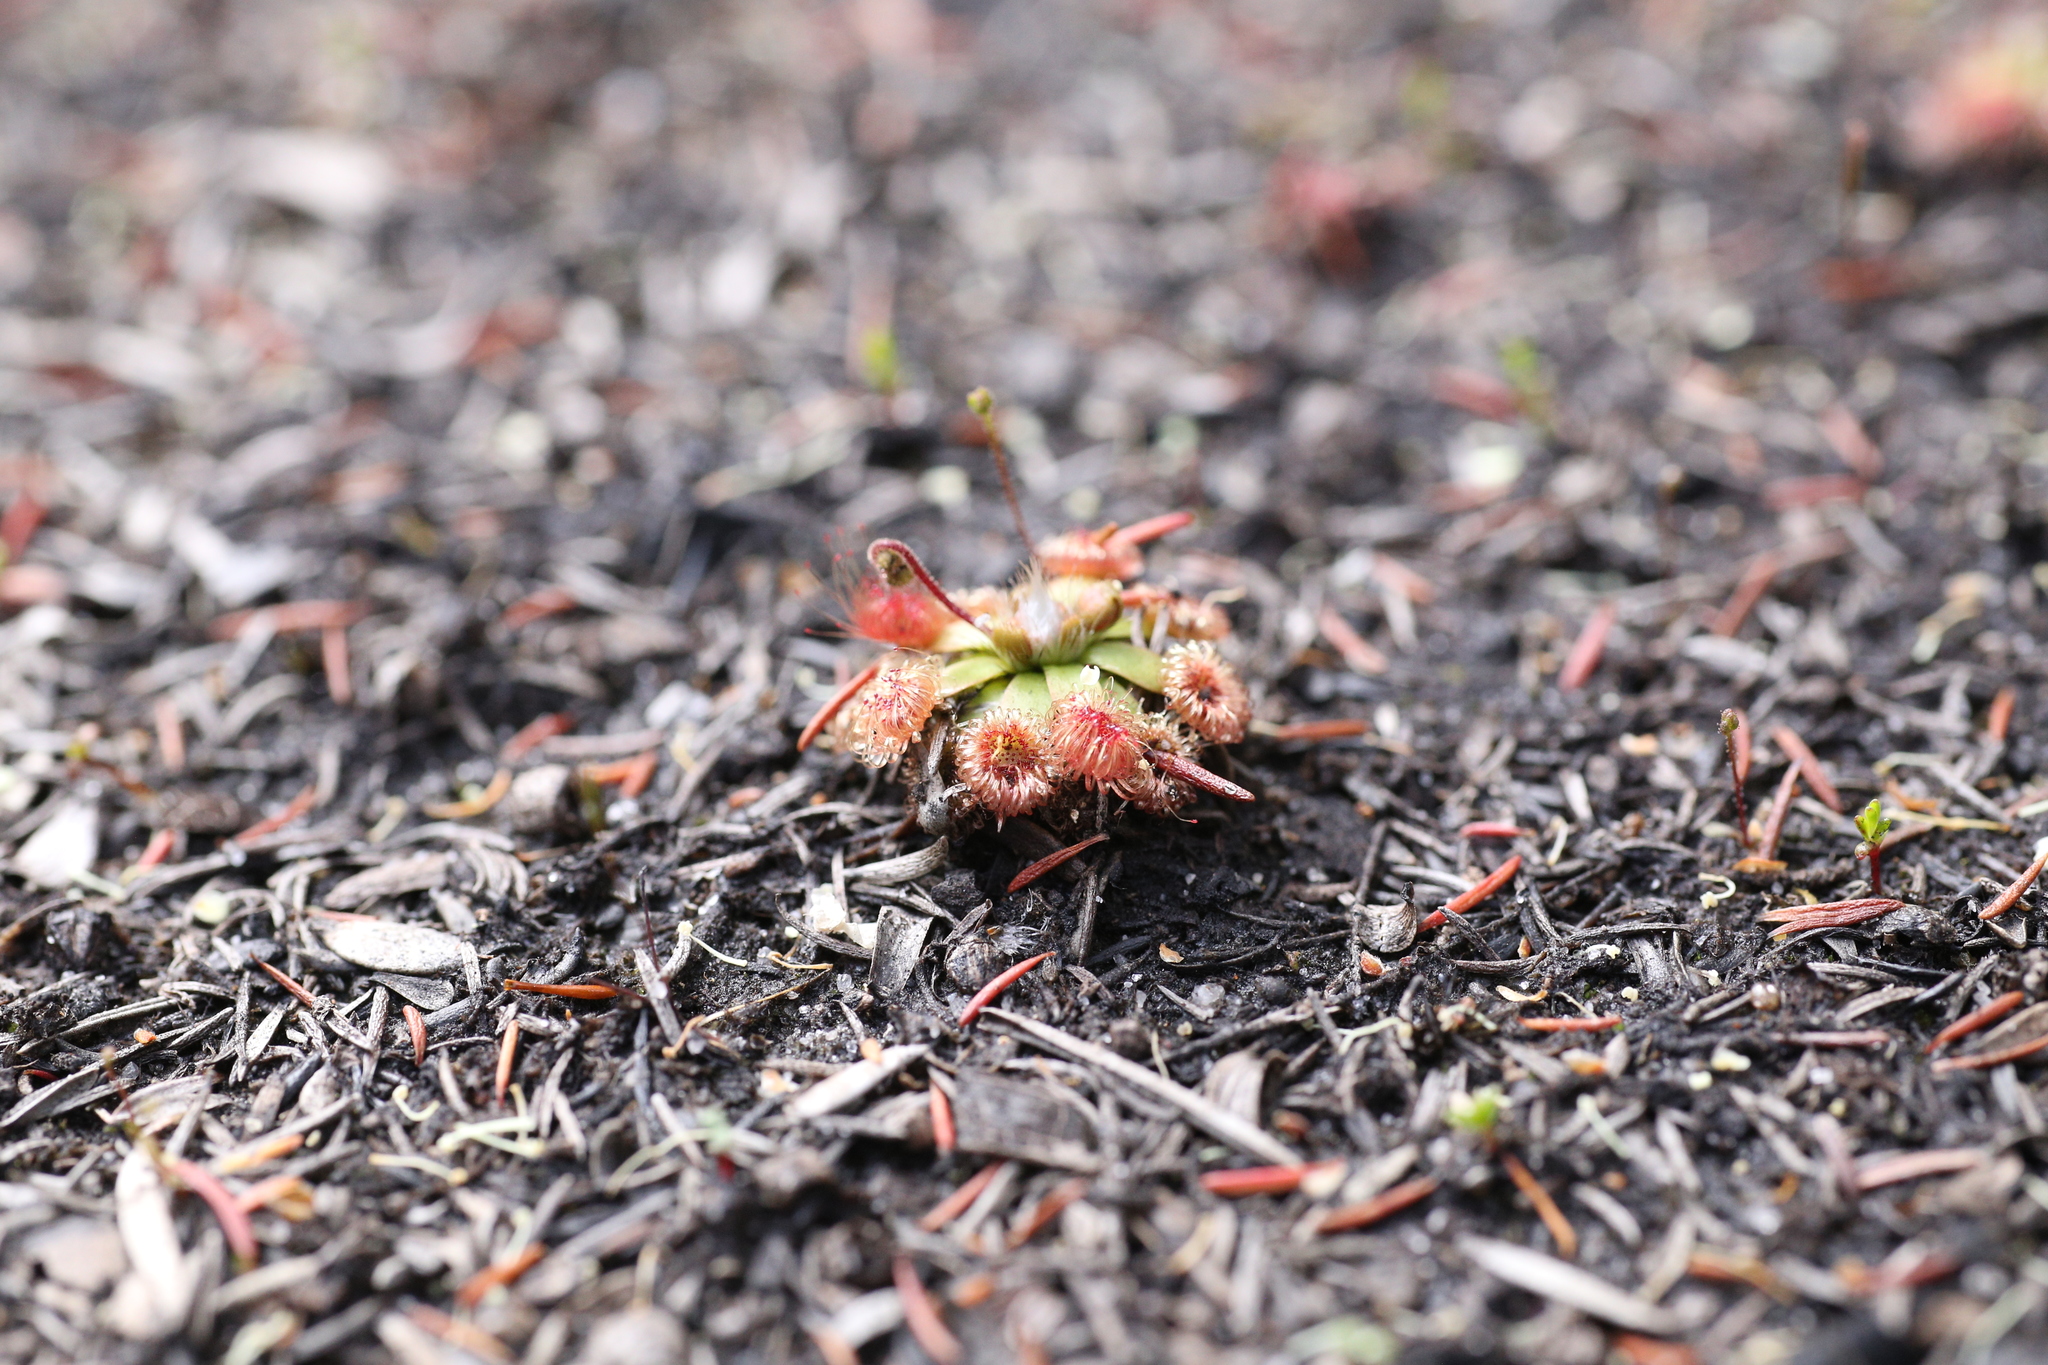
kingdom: Plantae
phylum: Tracheophyta
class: Magnoliopsida
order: Caryophyllales
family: Droseraceae
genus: Drosera
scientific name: Drosera pulchella
